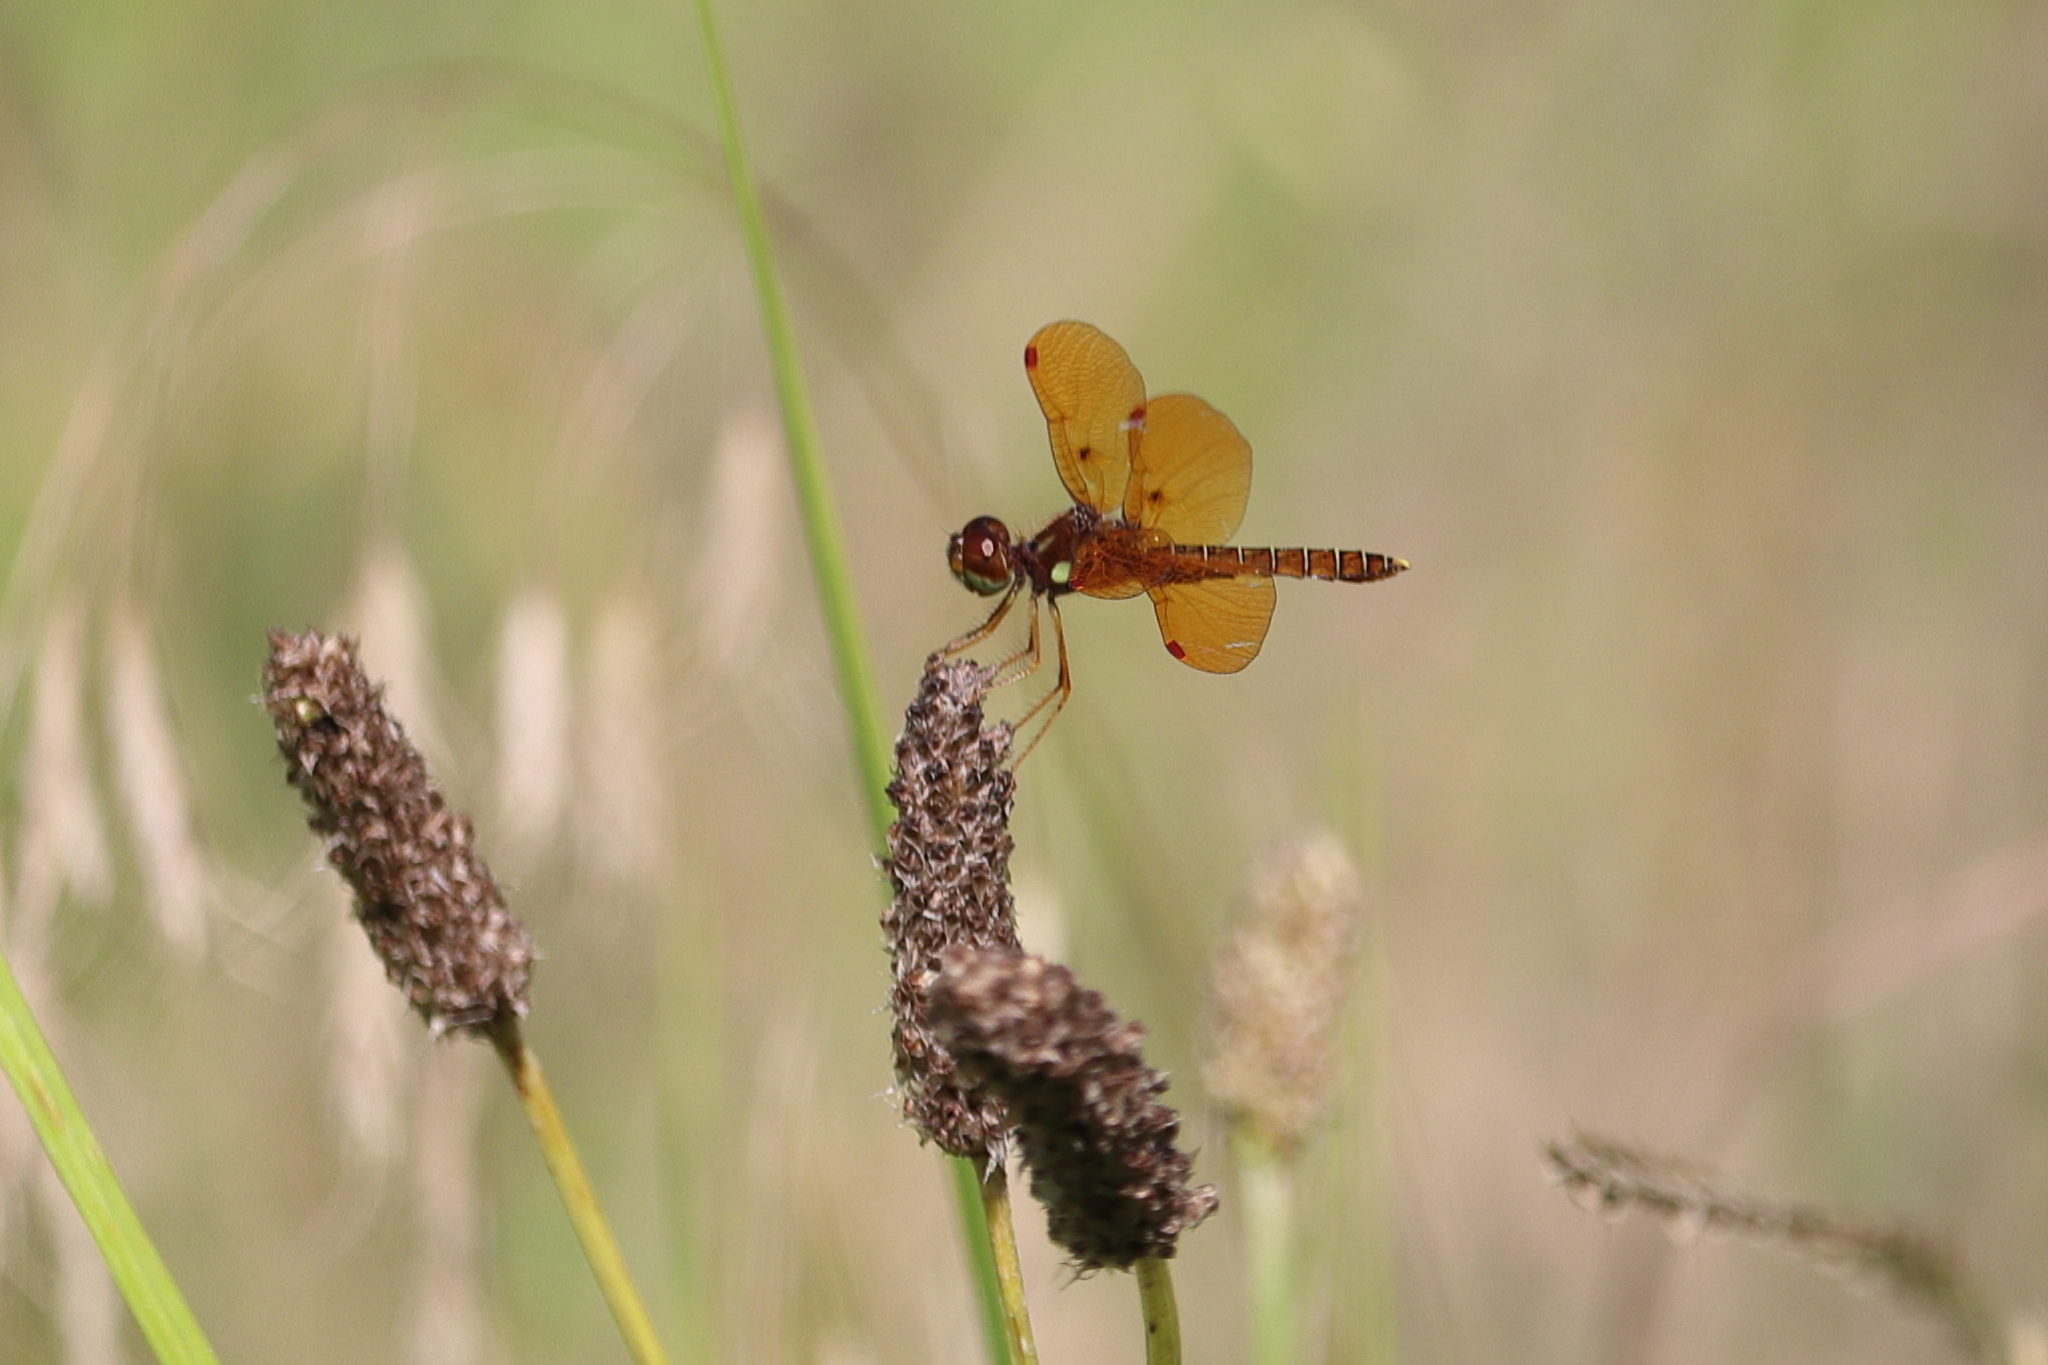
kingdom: Animalia
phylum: Arthropoda
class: Insecta
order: Odonata
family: Libellulidae
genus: Perithemis
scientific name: Perithemis tenera
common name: Eastern amberwing
